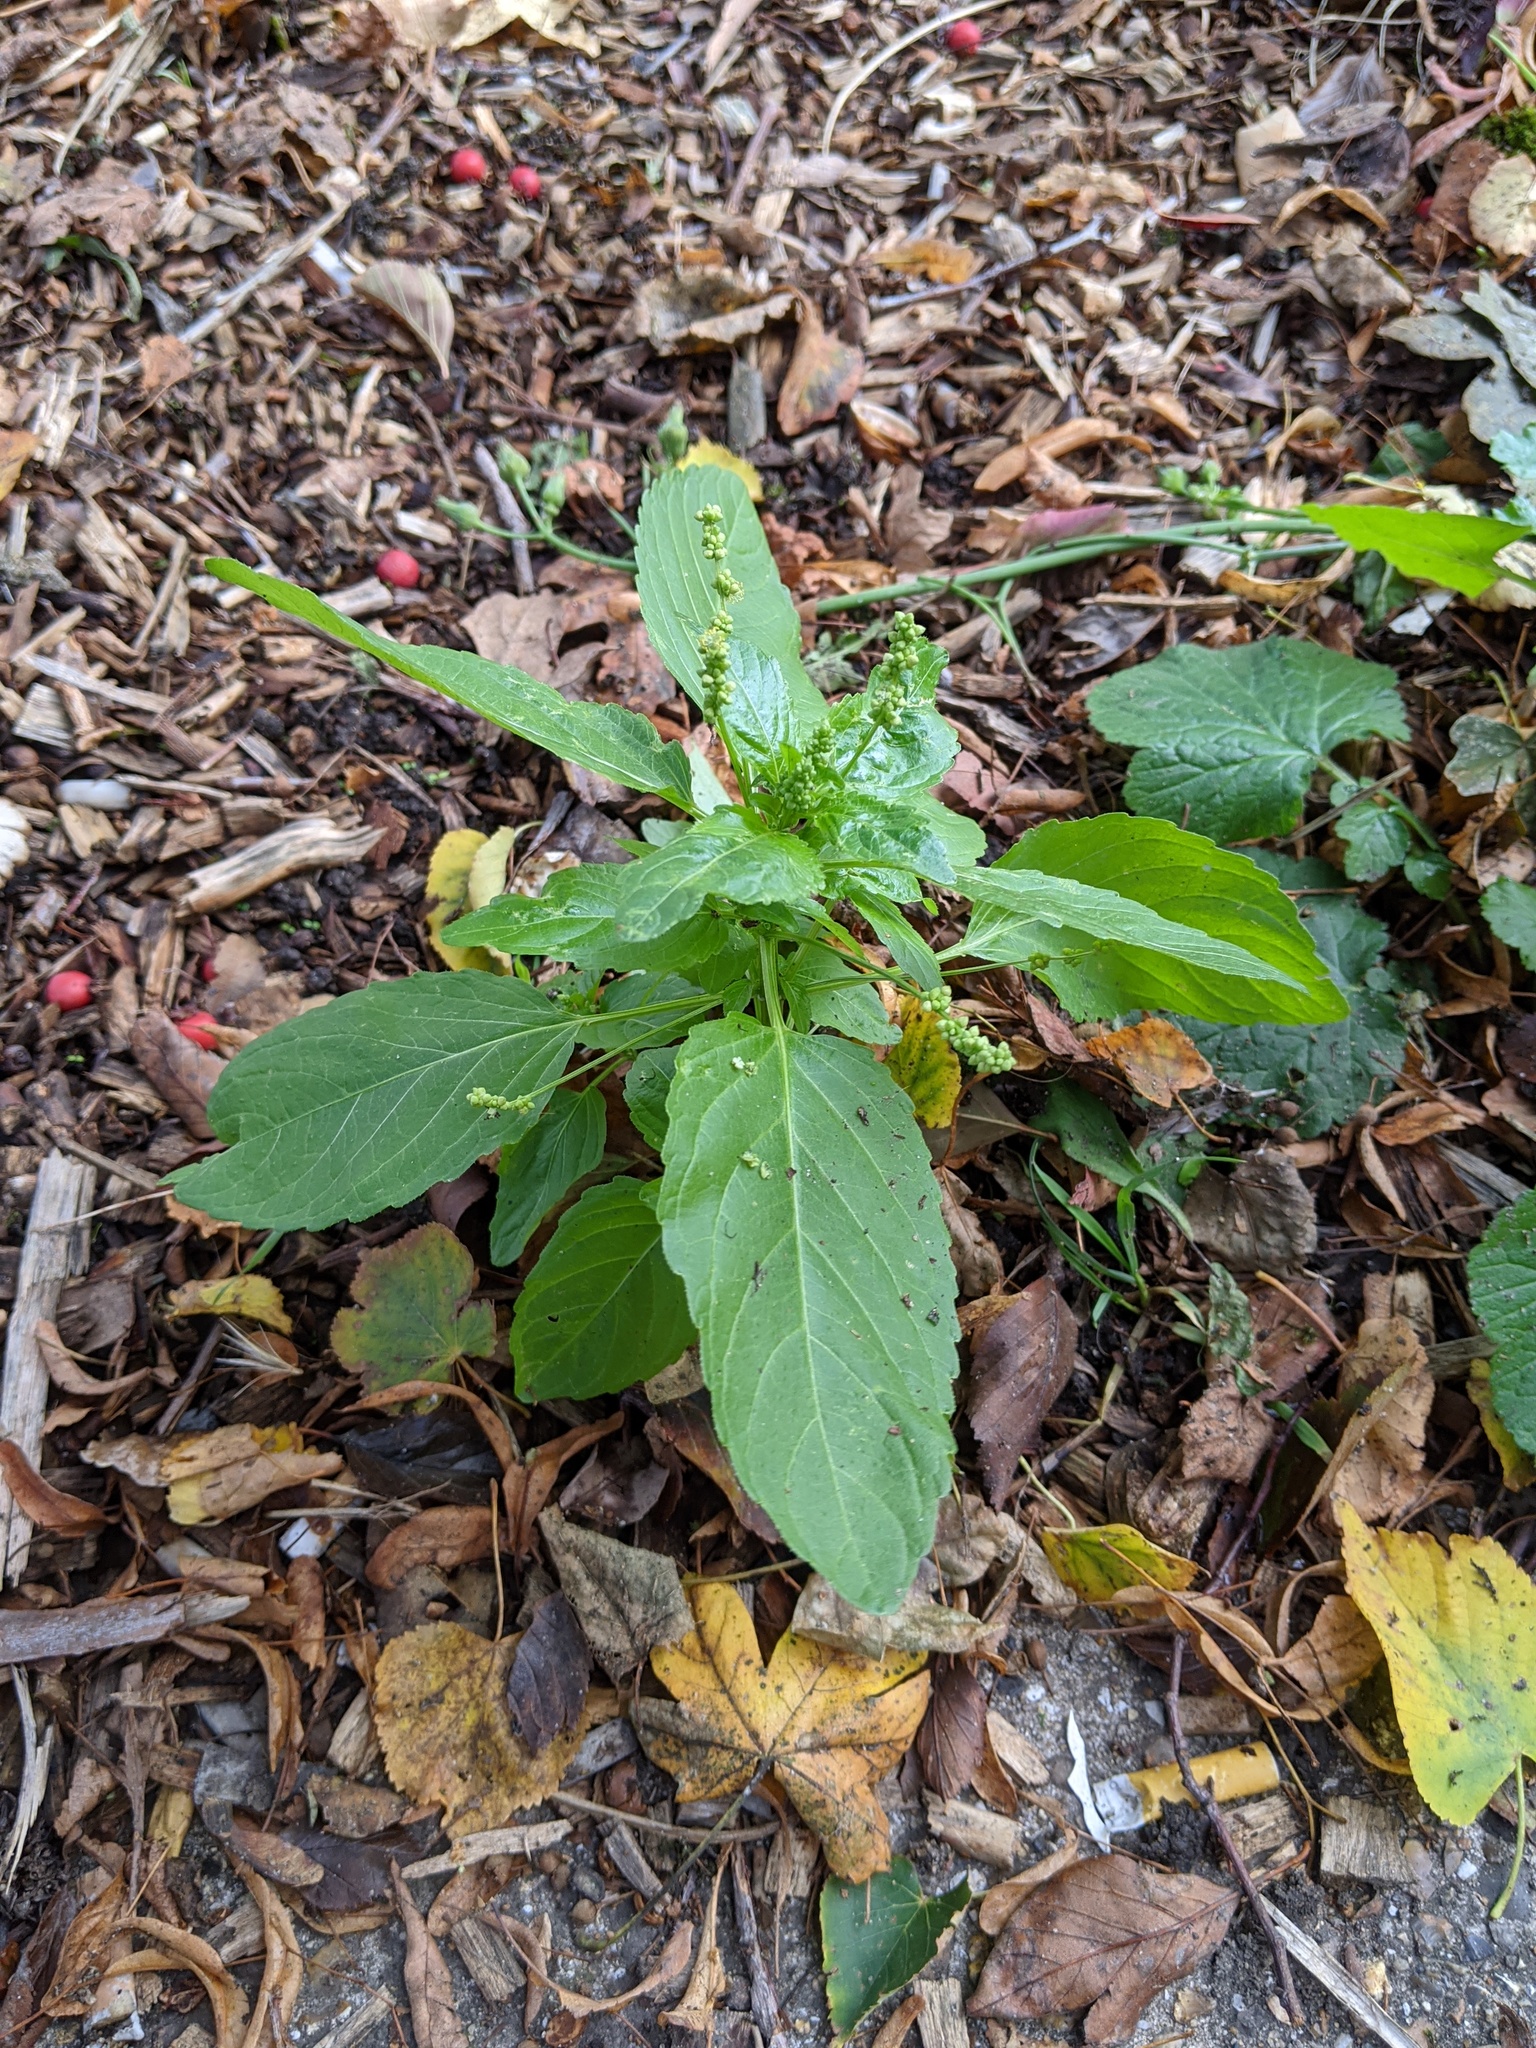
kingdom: Plantae
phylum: Tracheophyta
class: Magnoliopsida
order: Malpighiales
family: Euphorbiaceae
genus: Mercurialis
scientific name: Mercurialis annua
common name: Annual mercury
